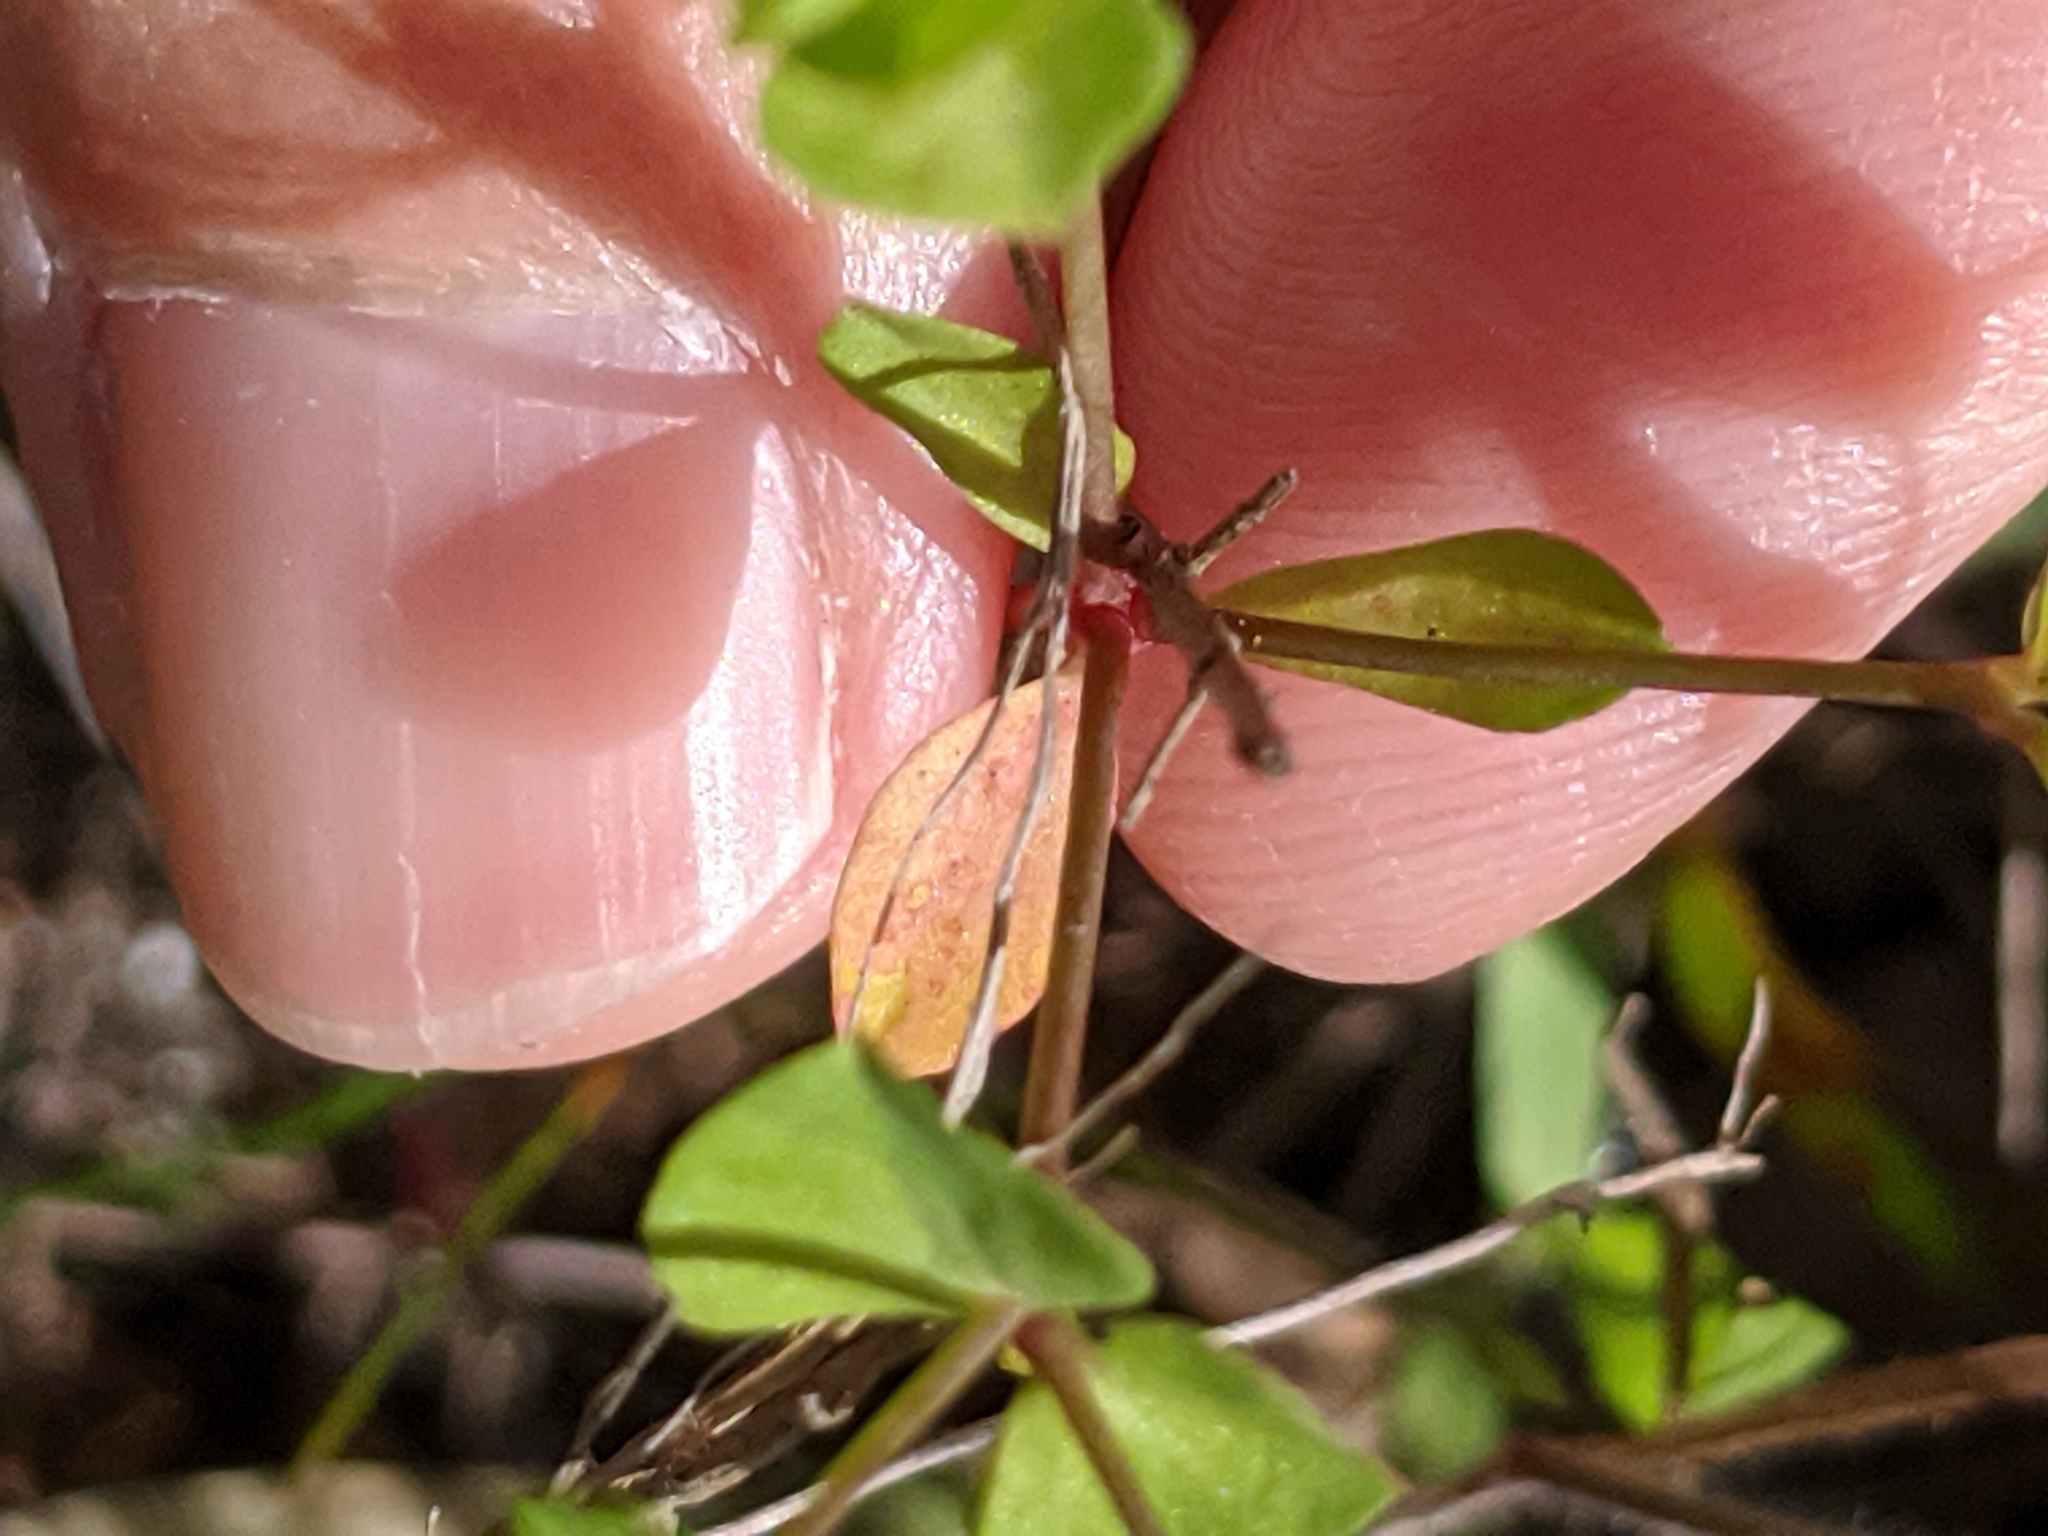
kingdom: Plantae
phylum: Tracheophyta
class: Magnoliopsida
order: Malpighiales
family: Euphorbiaceae
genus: Euphorbia
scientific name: Euphorbia tetrapora
